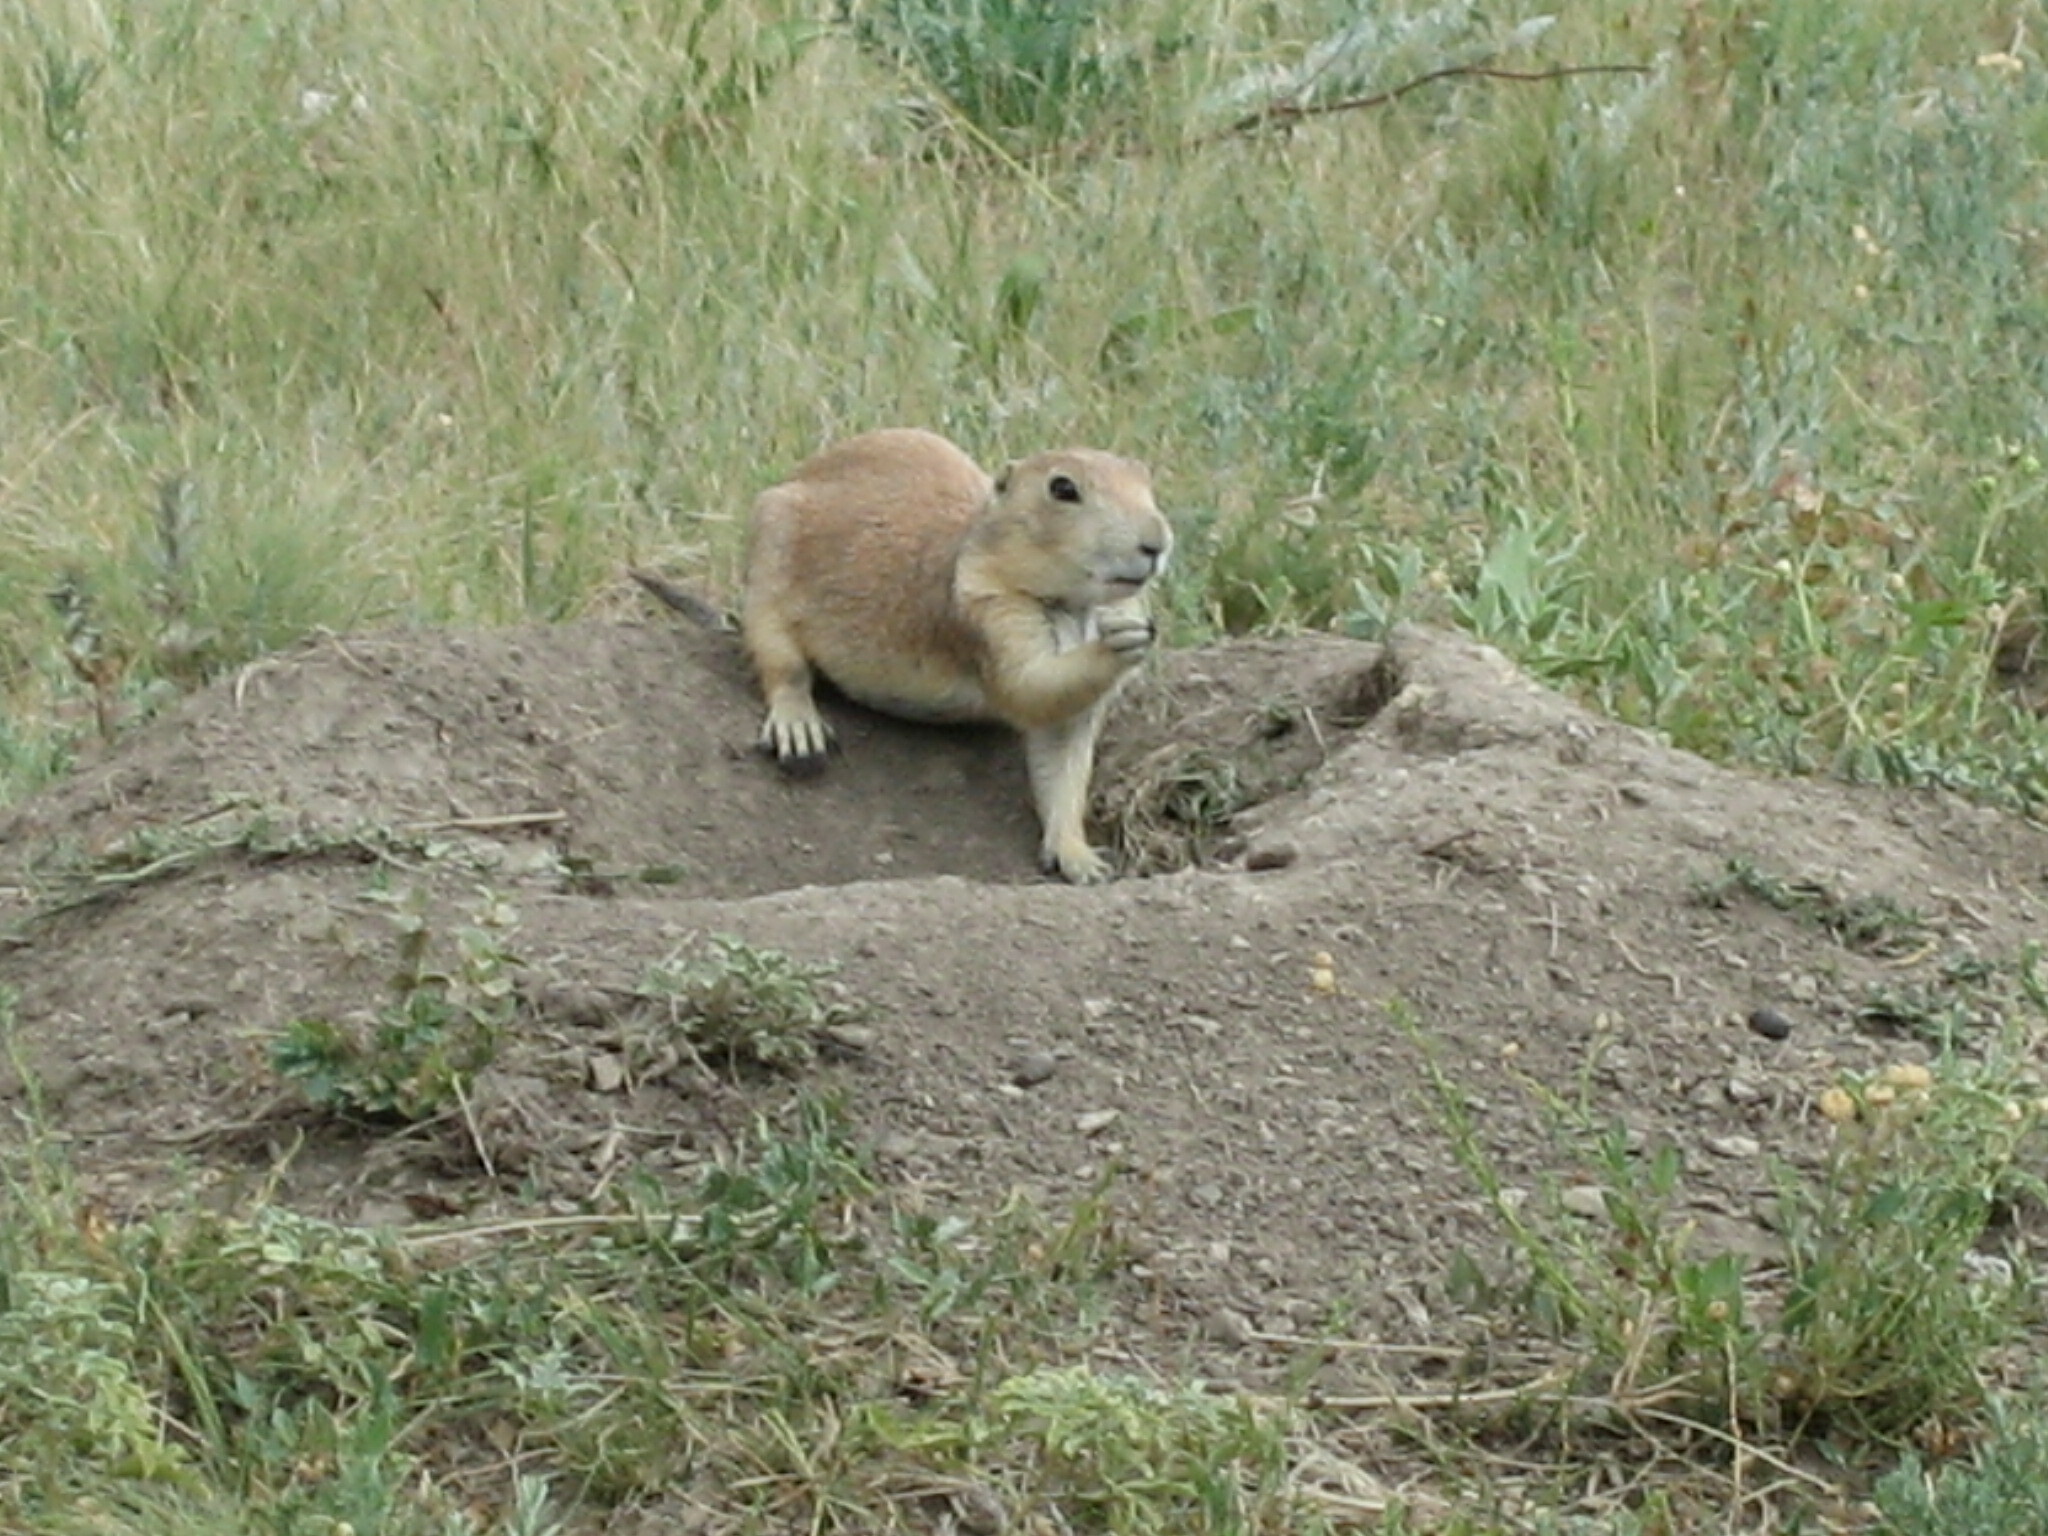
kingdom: Animalia
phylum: Chordata
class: Mammalia
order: Rodentia
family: Sciuridae
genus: Cynomys
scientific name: Cynomys ludovicianus
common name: Black-tailed prairie dog
